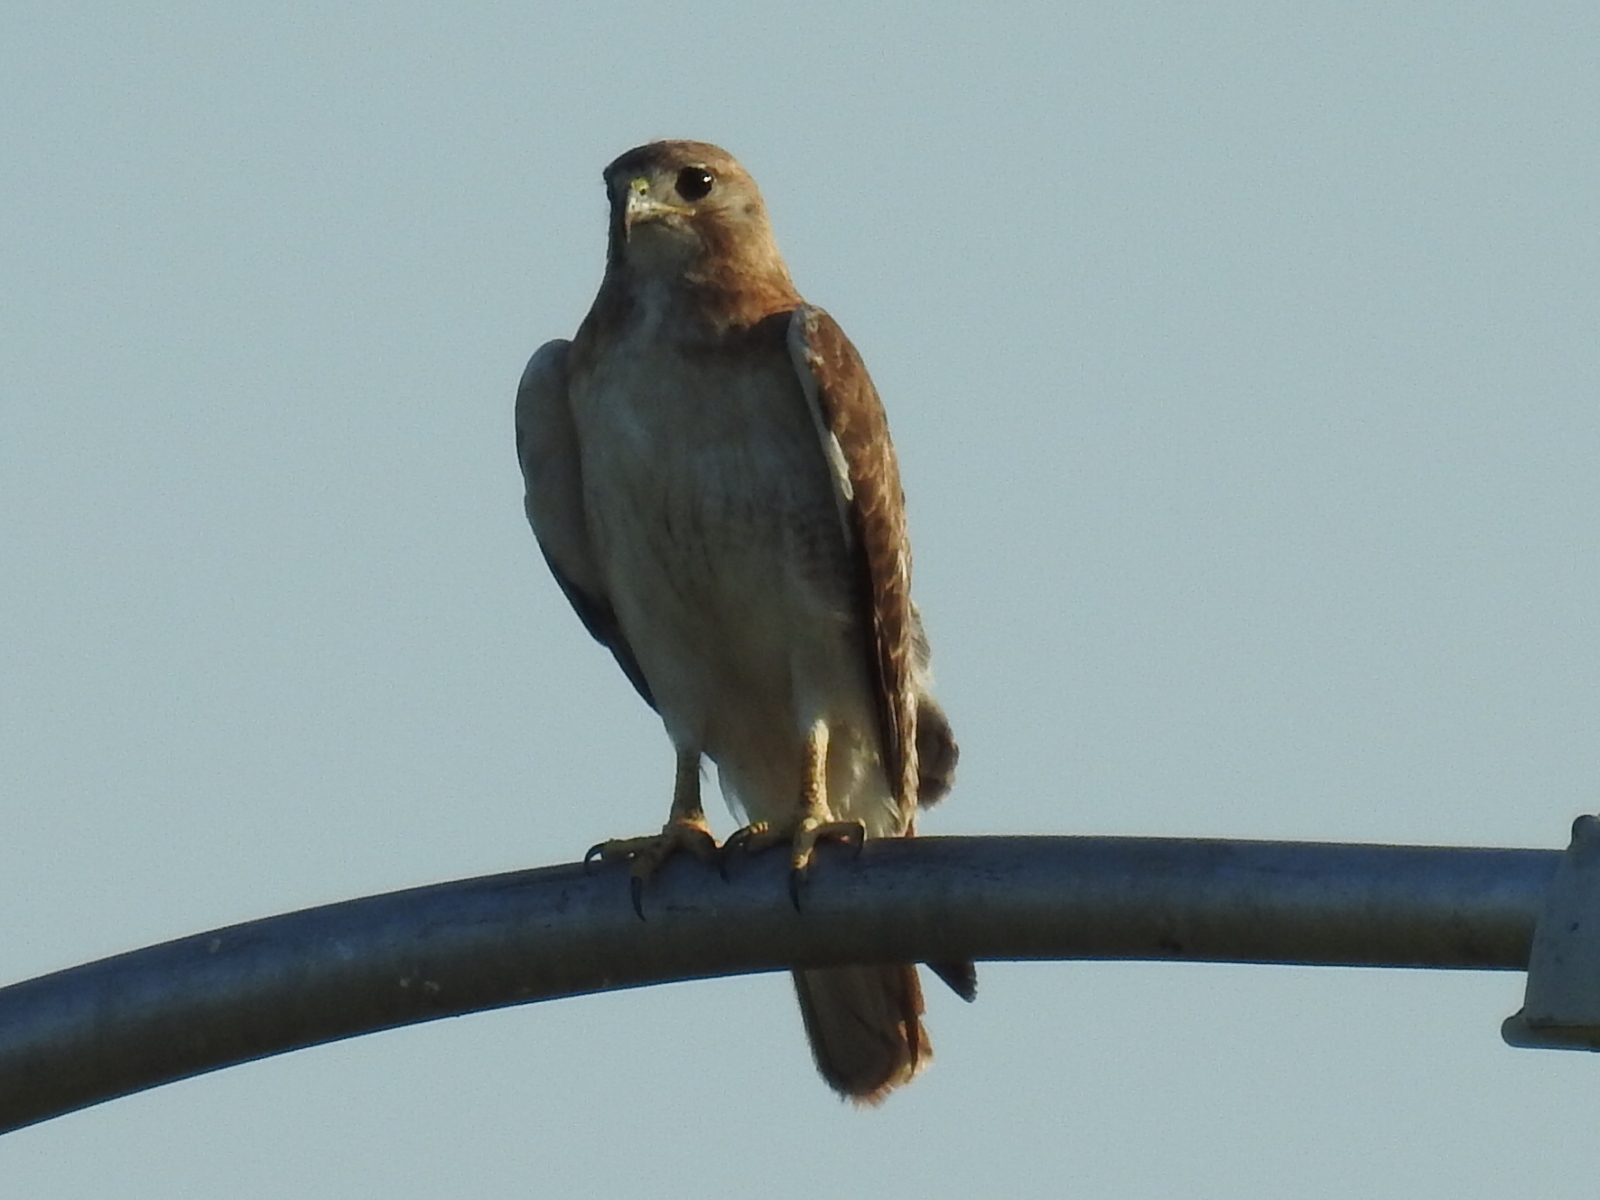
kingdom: Animalia
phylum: Chordata
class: Aves
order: Accipitriformes
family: Accipitridae
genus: Buteo
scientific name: Buteo jamaicensis
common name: Red-tailed hawk
